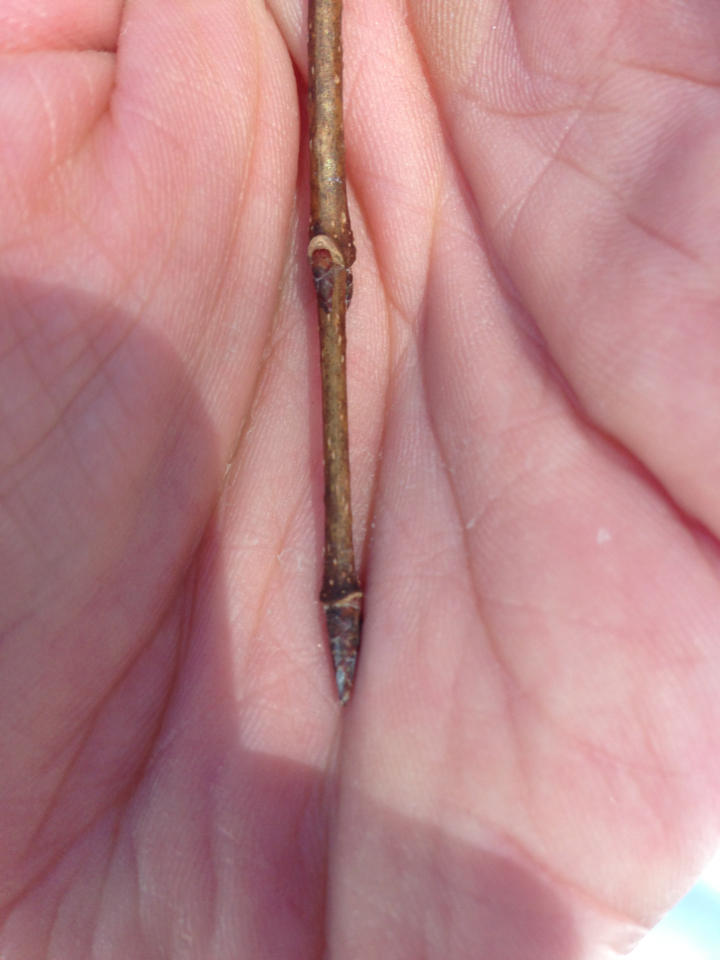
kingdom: Plantae
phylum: Tracheophyta
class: Magnoliopsida
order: Sapindales
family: Sapindaceae
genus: Acer
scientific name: Acer saccharum
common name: Sugar maple
